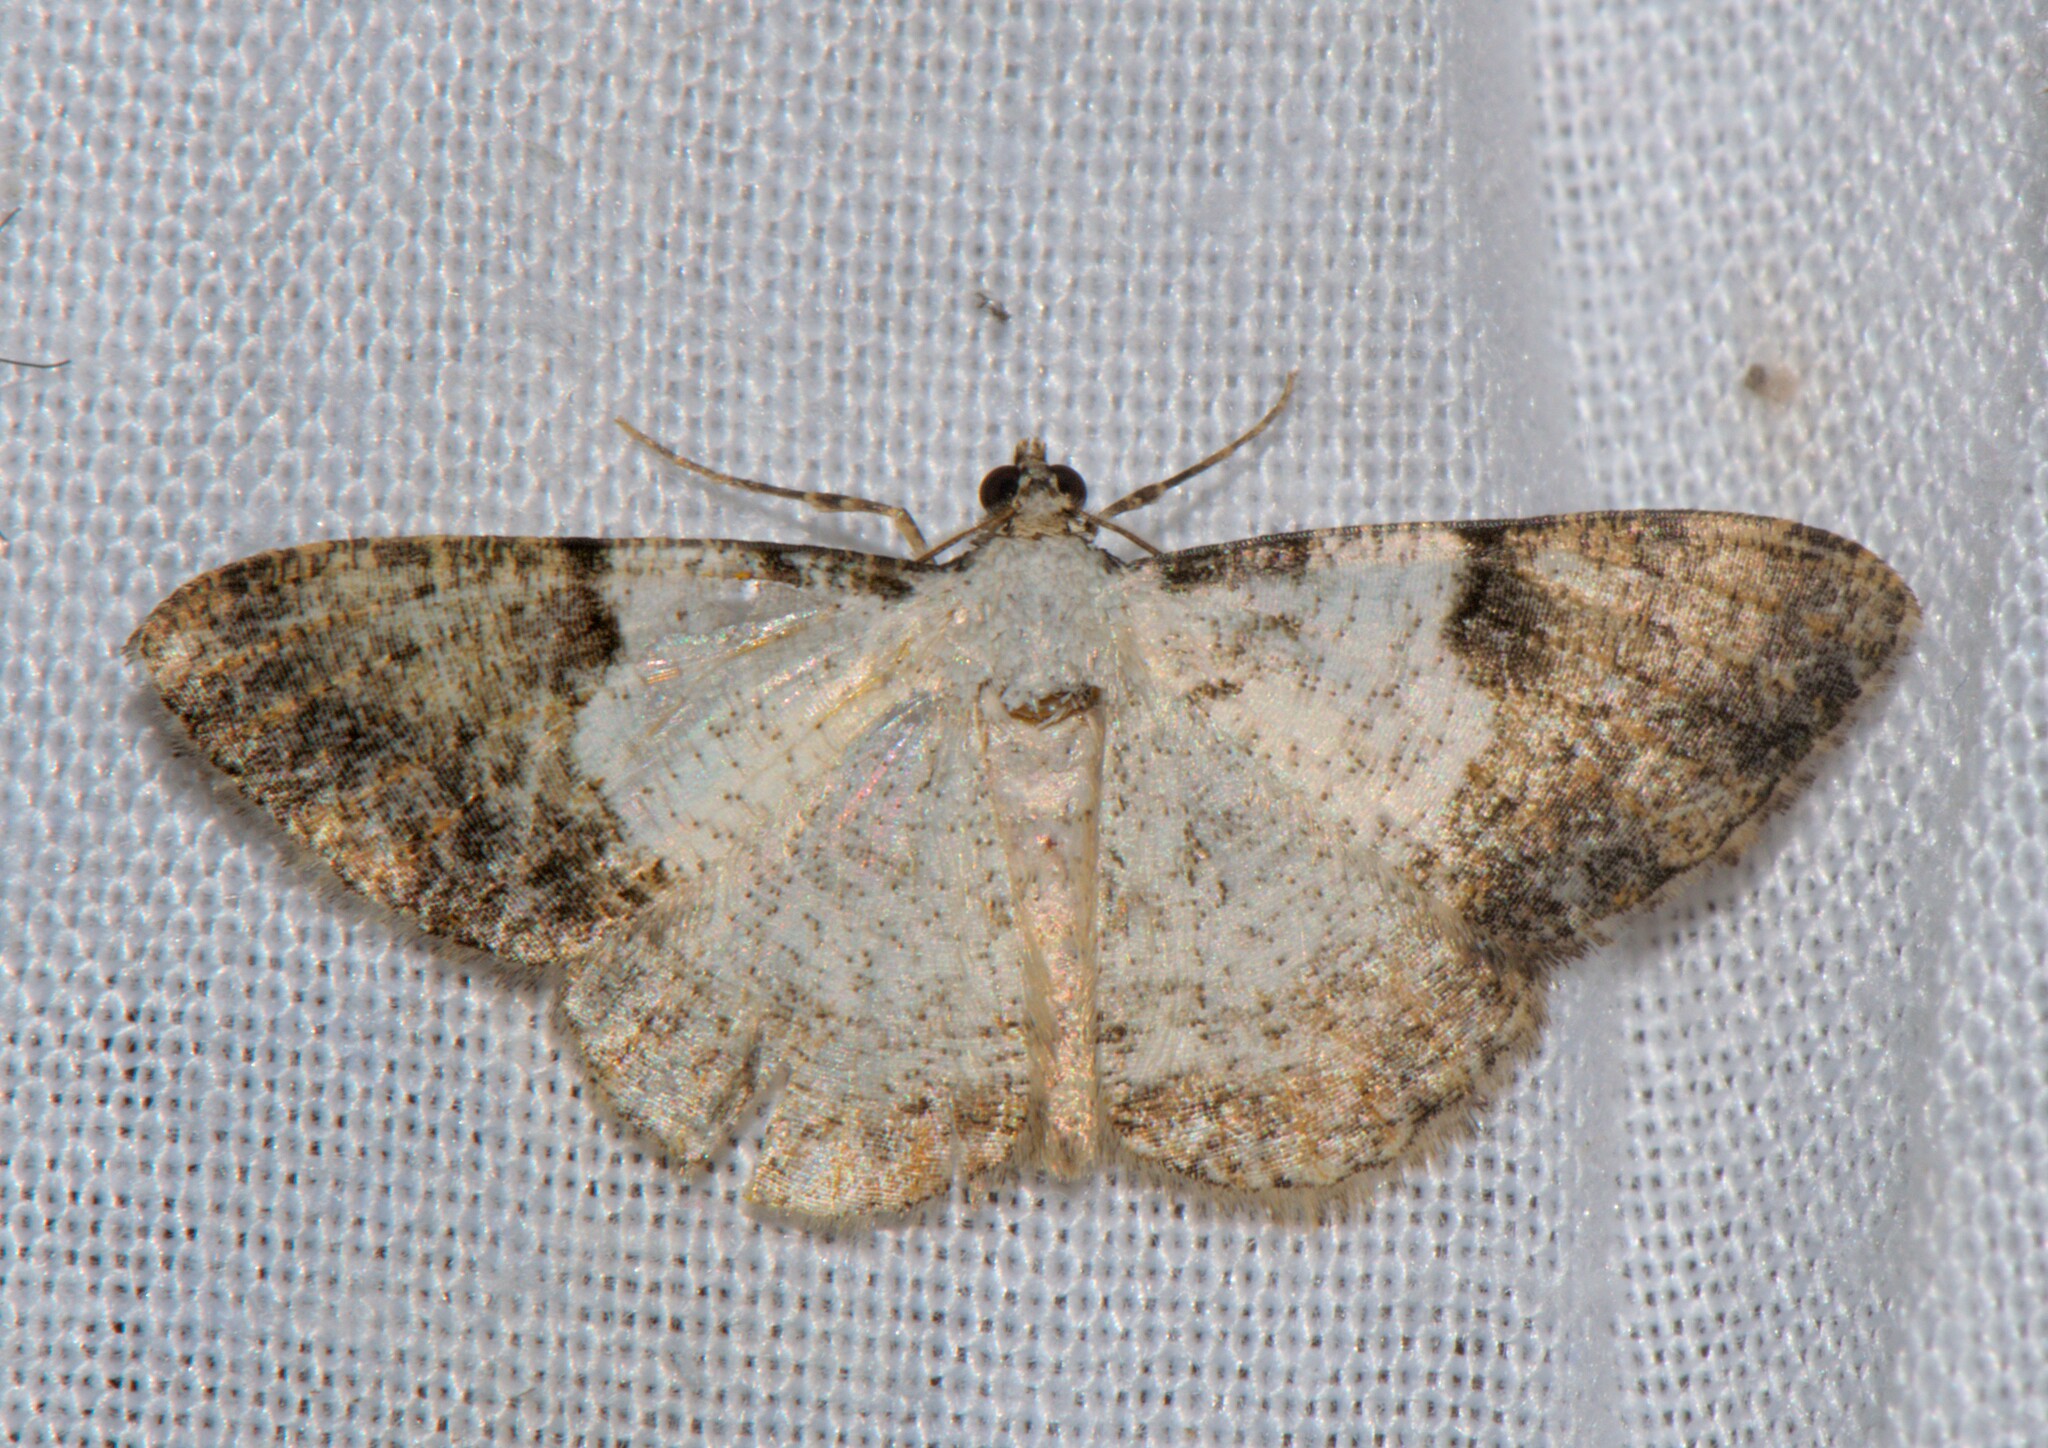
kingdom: Animalia
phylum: Arthropoda
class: Insecta
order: Lepidoptera
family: Geometridae
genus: Myrioblephara
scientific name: Myrioblephara albibasis
